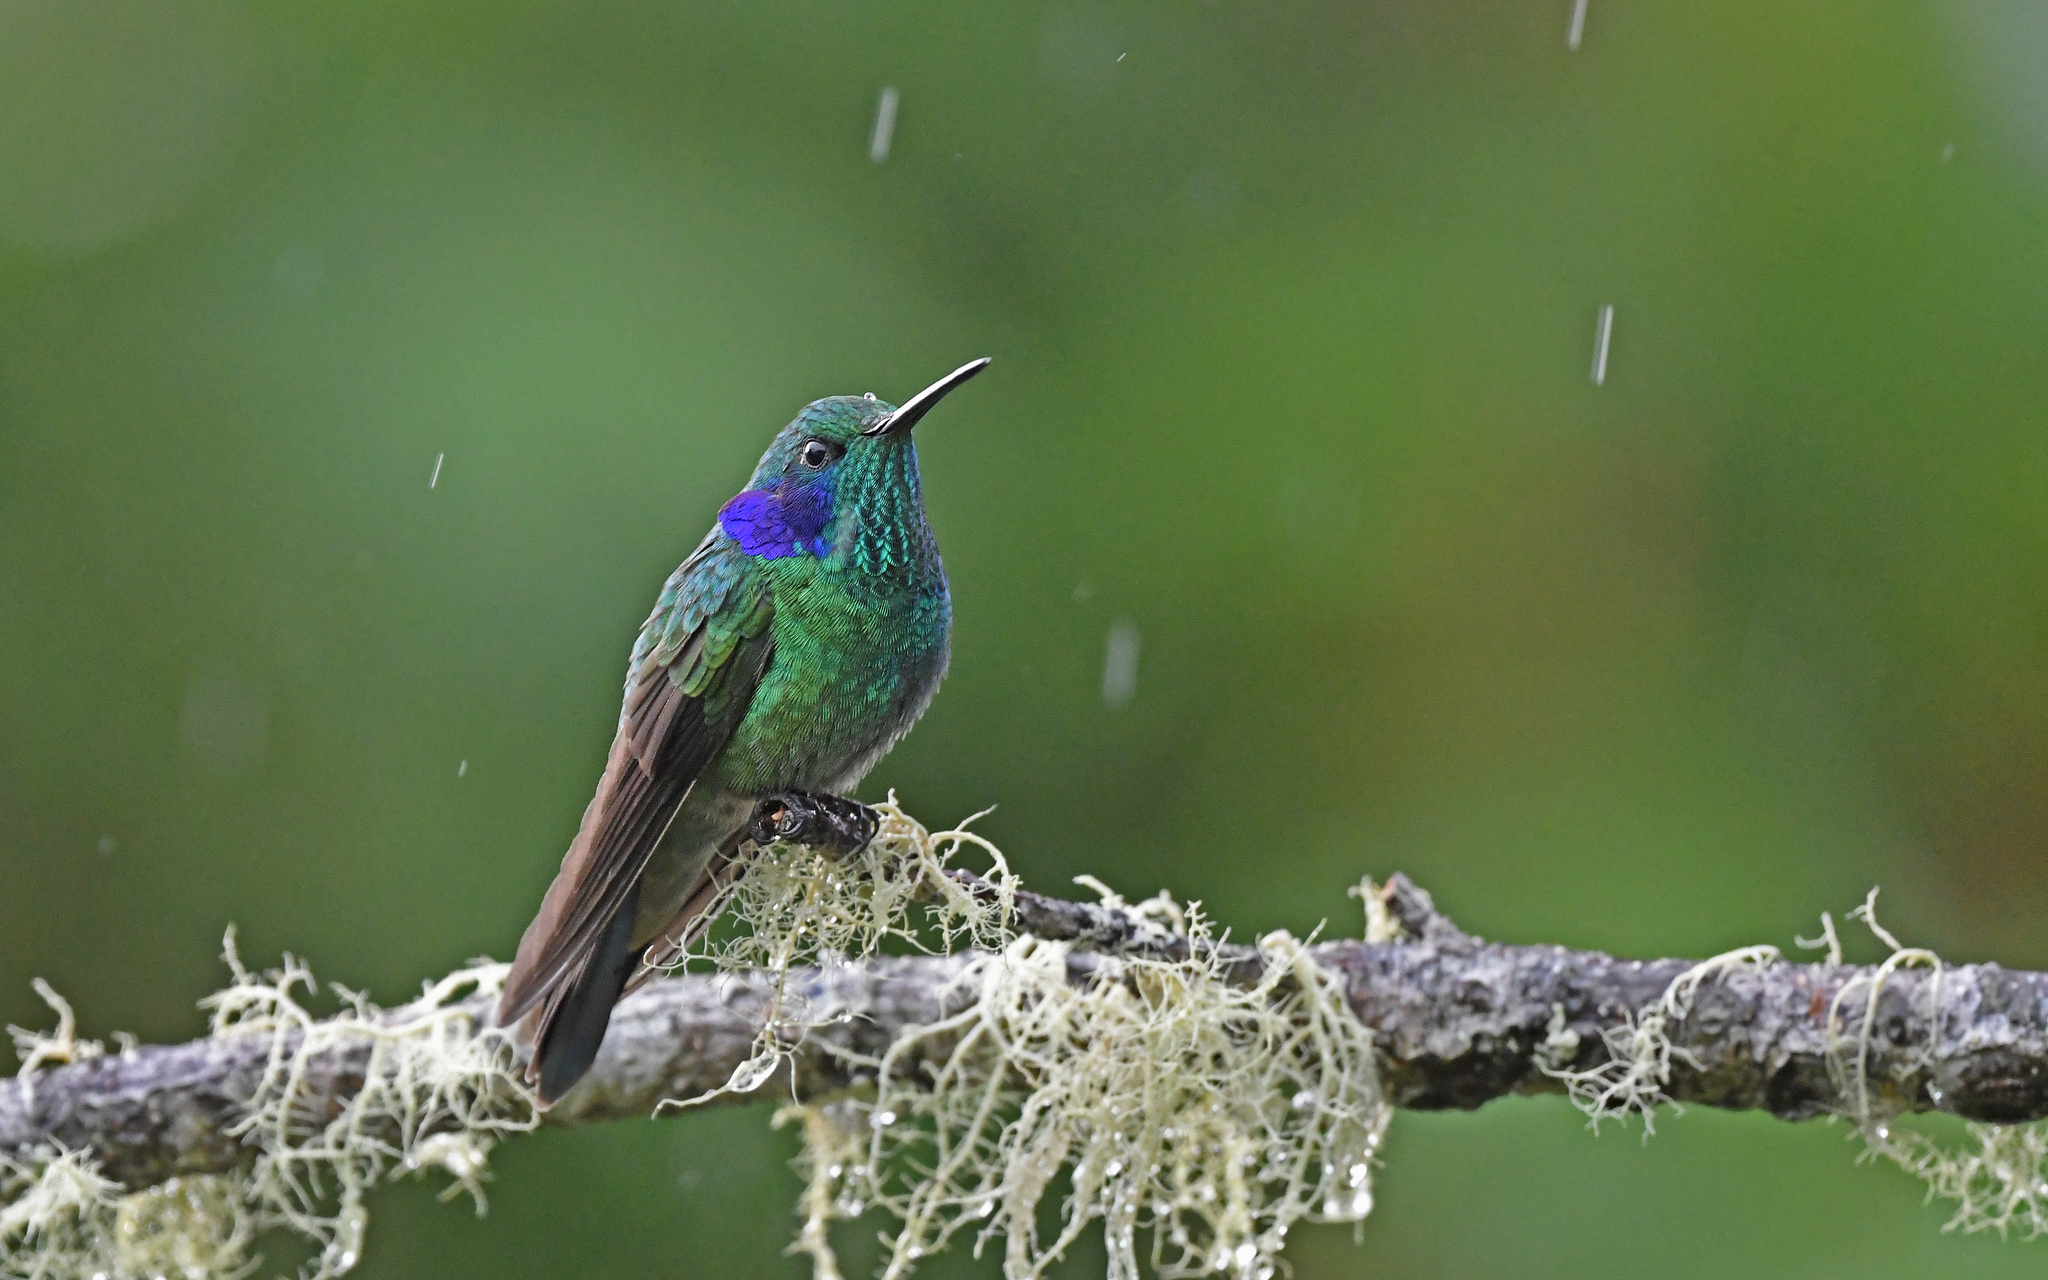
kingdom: Animalia
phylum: Chordata
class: Aves
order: Apodiformes
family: Trochilidae
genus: Colibri
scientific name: Colibri cyanotus
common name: Lesser violetear
